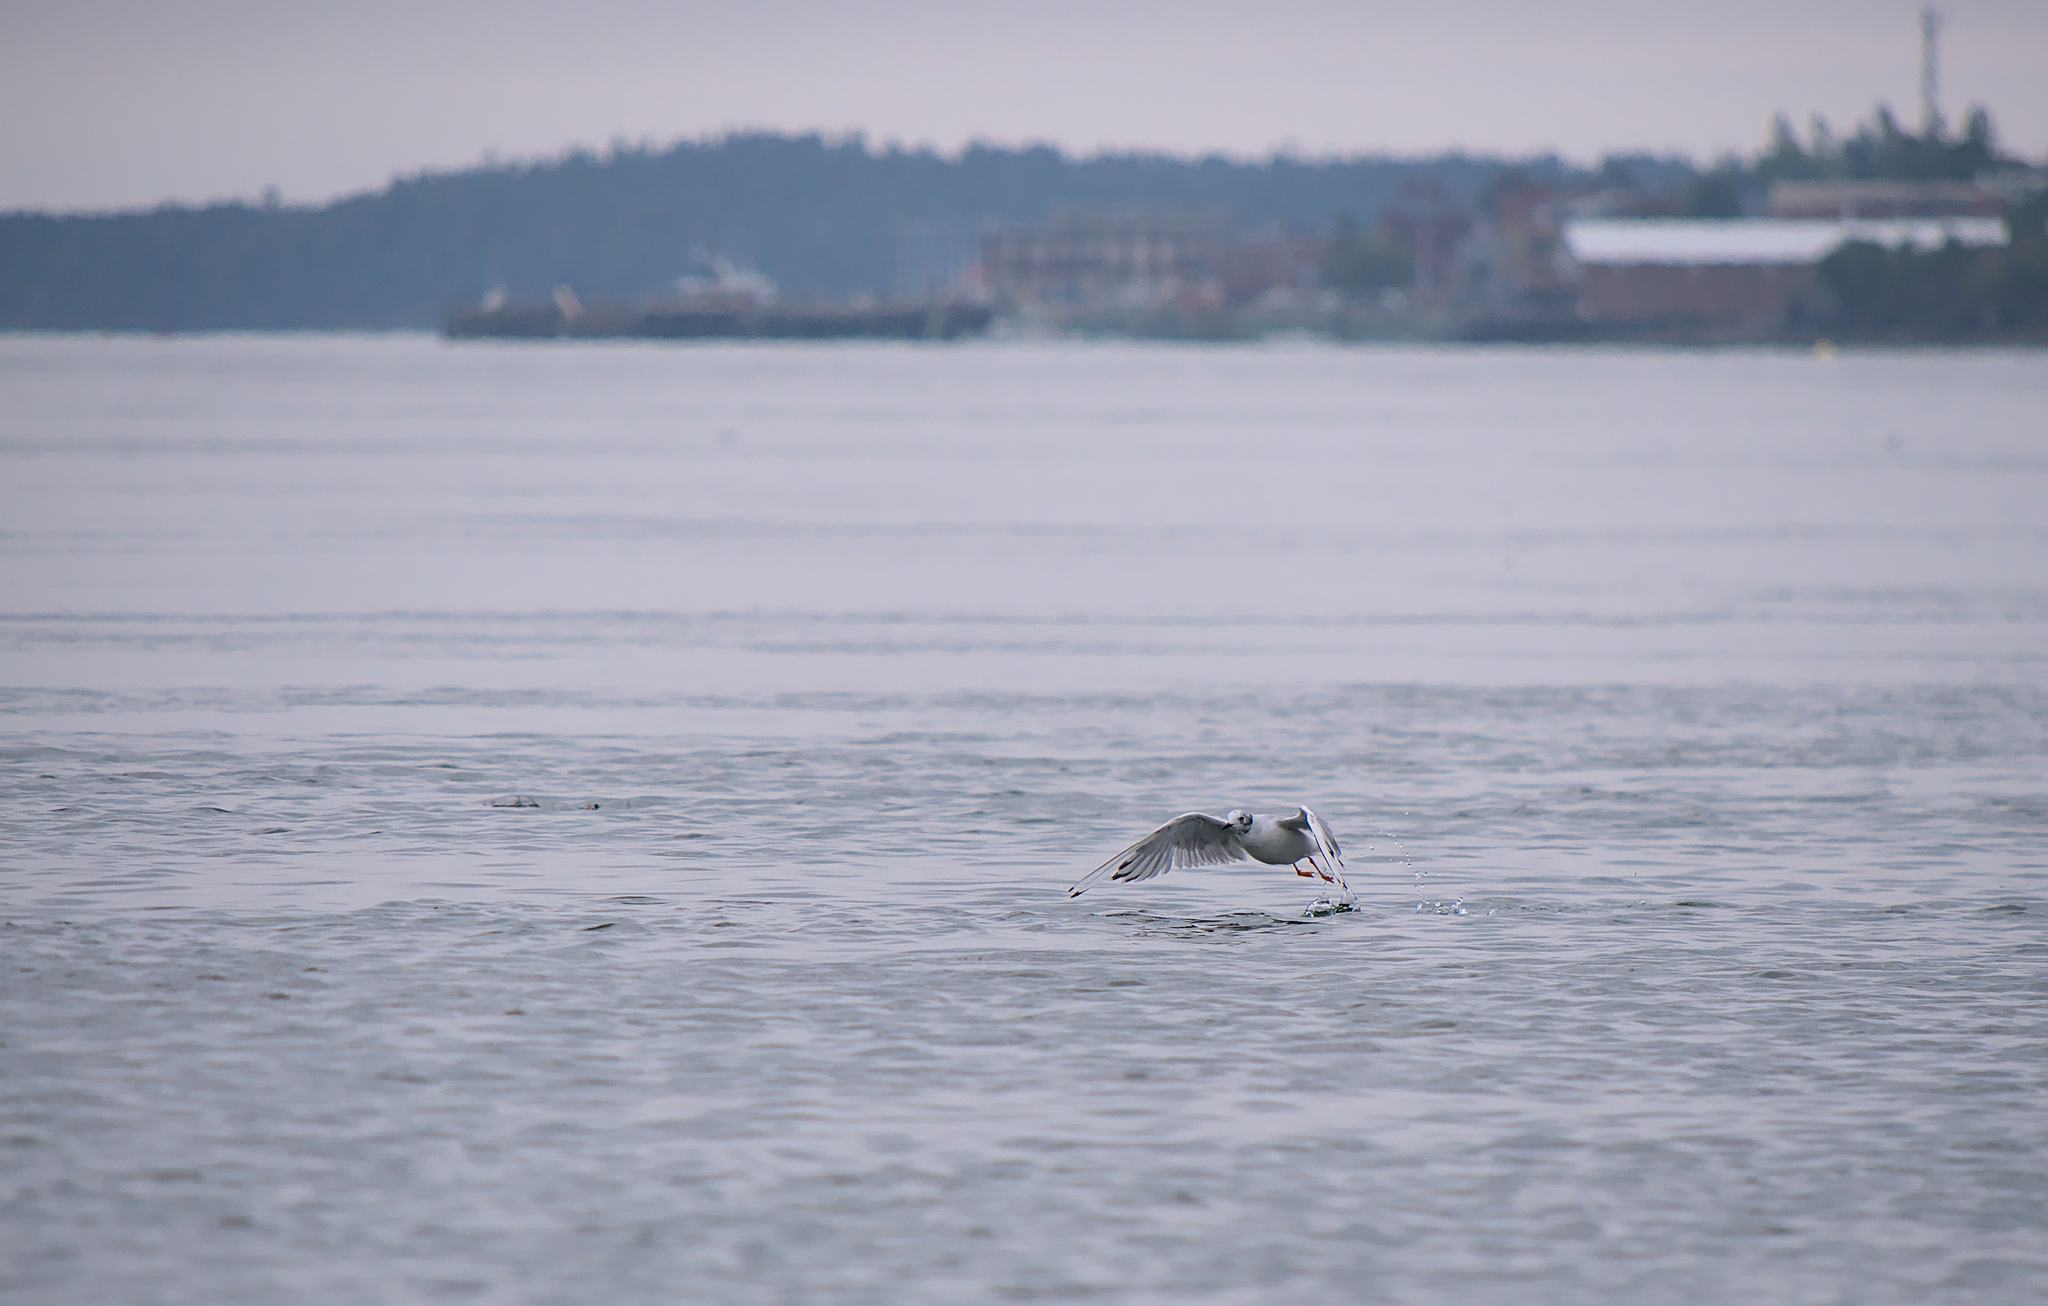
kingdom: Animalia
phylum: Chordata
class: Aves
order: Charadriiformes
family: Laridae
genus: Chroicocephalus
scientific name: Chroicocephalus philadelphia
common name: Bonaparte's gull
